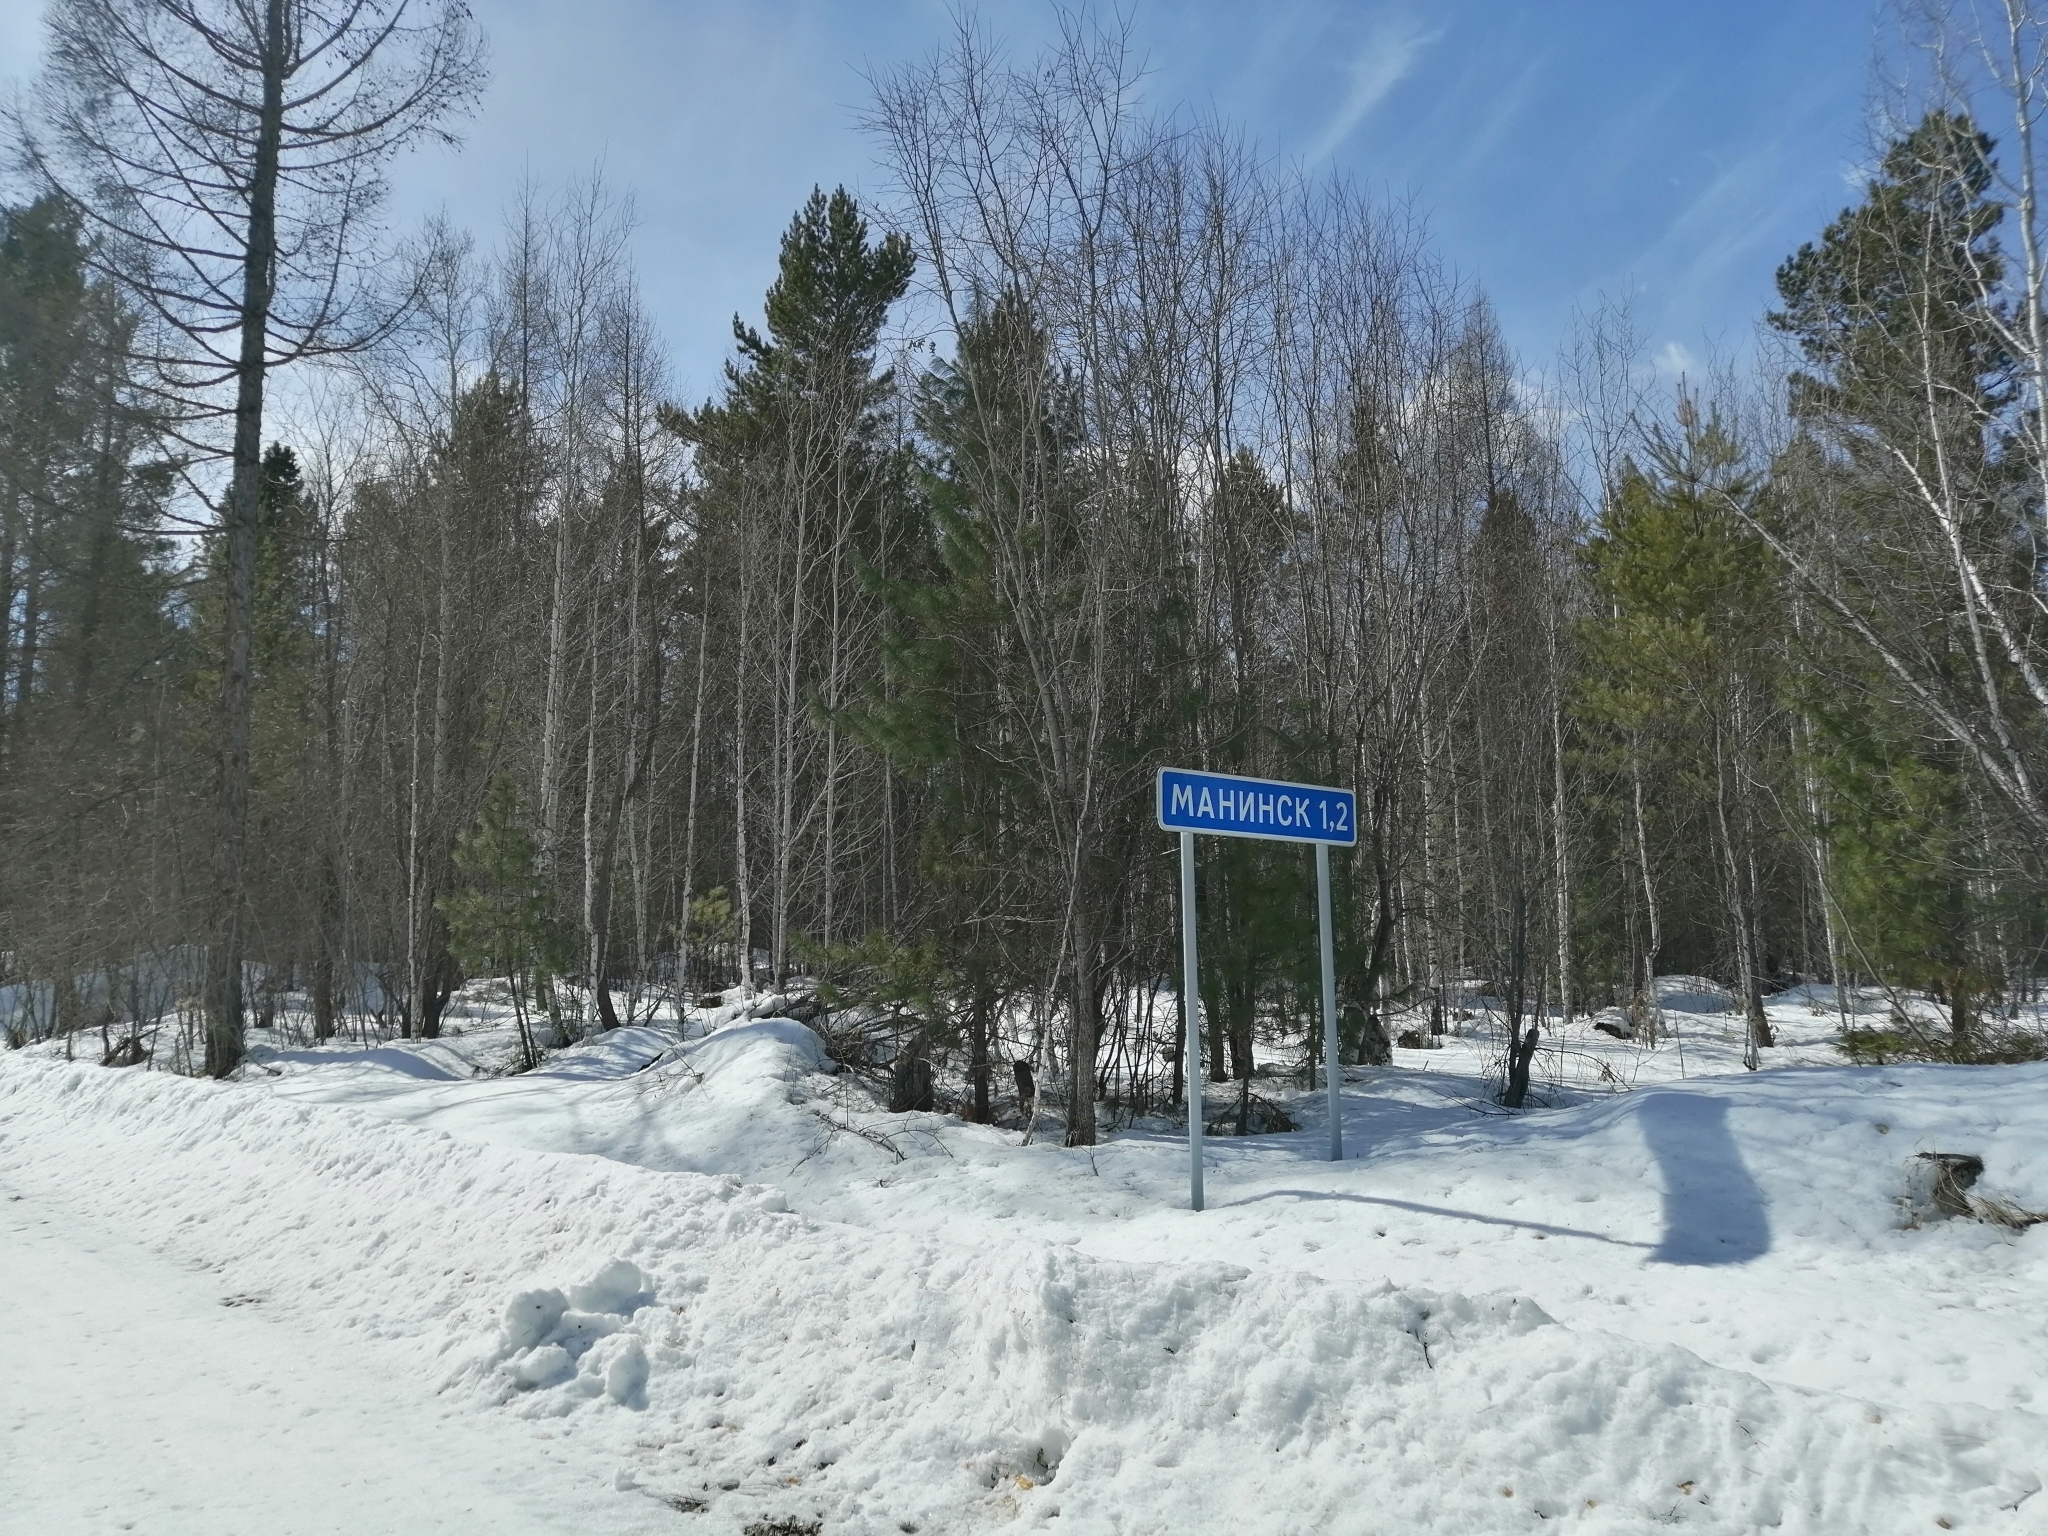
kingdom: Plantae
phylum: Tracheophyta
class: Pinopsida
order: Pinales
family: Pinaceae
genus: Larix
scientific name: Larix sibirica
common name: Siberian larch
